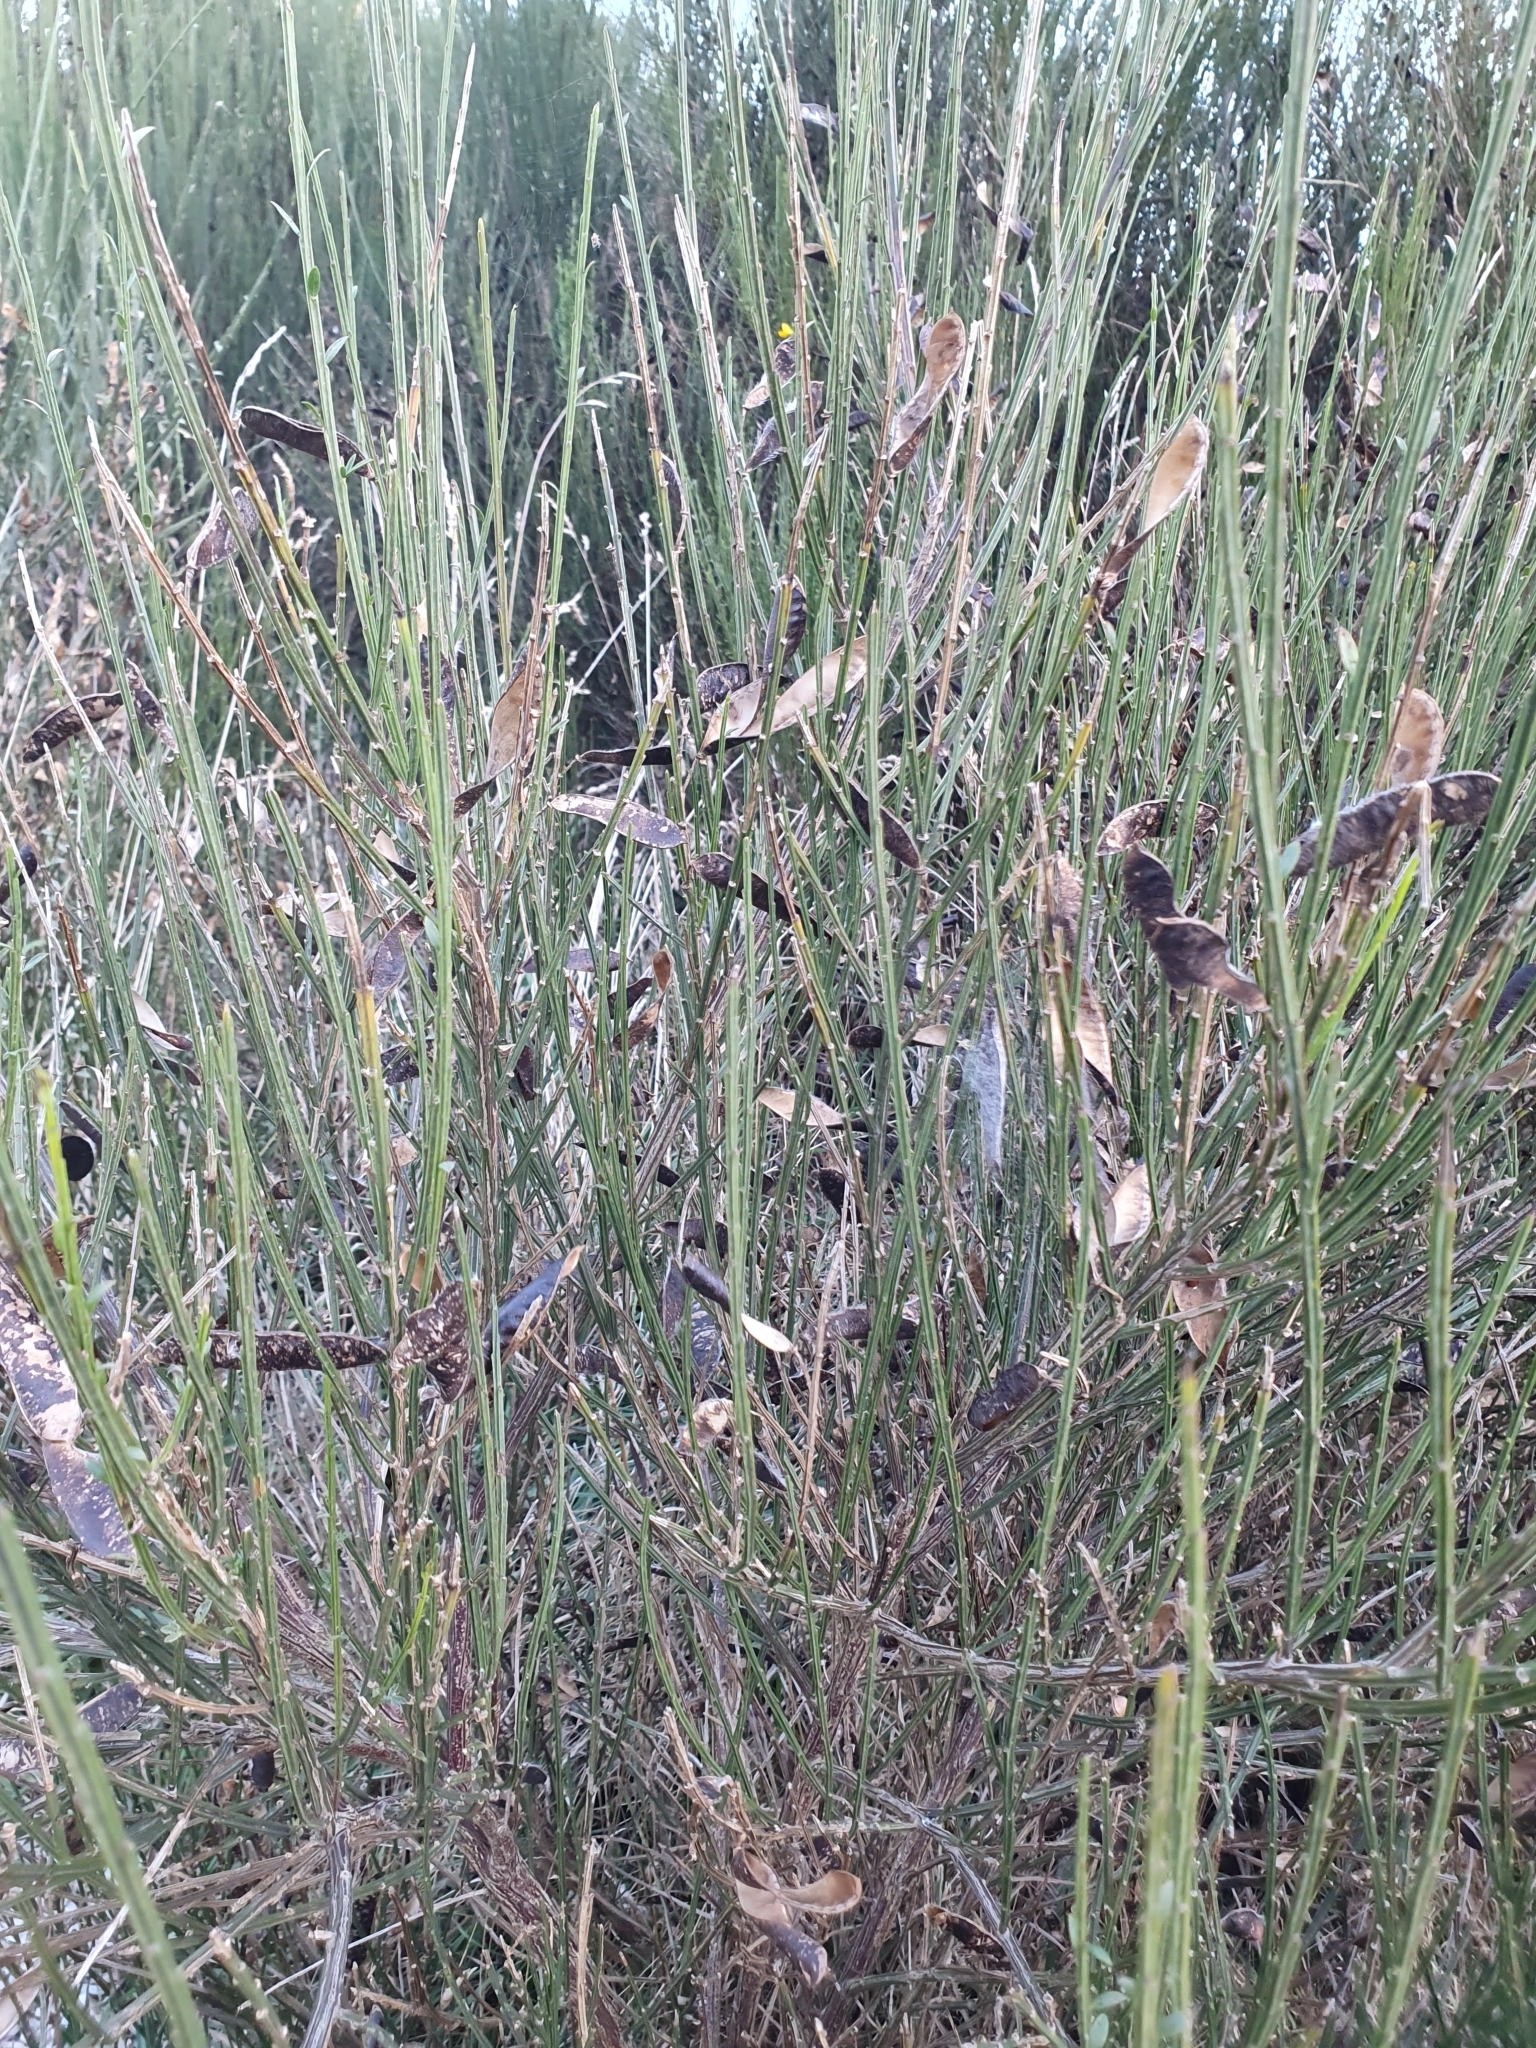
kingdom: Plantae
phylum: Tracheophyta
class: Magnoliopsida
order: Fabales
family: Fabaceae
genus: Cytisus
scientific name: Cytisus scoparius
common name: Scotch broom
